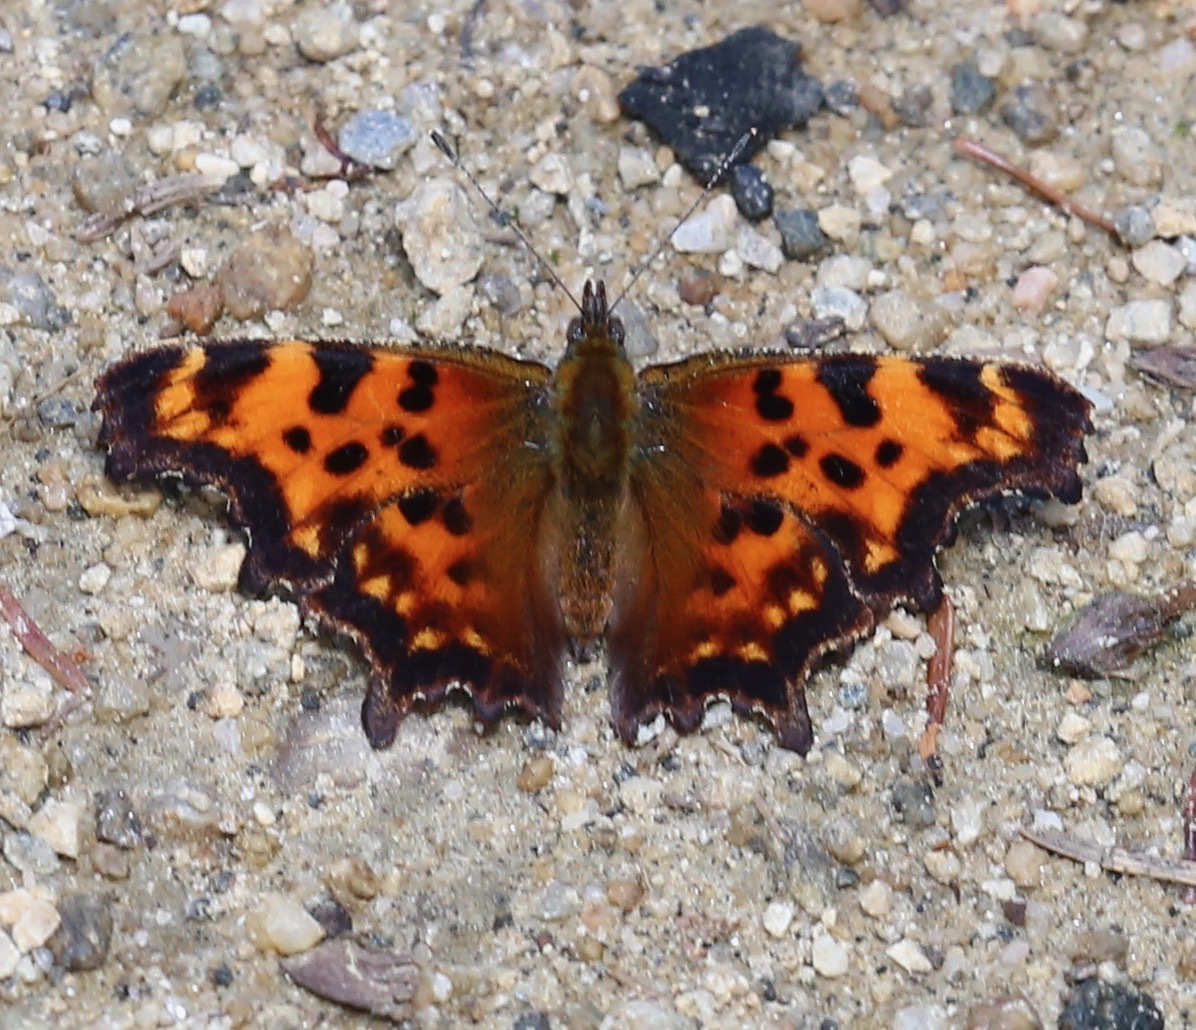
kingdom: Animalia
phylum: Arthropoda
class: Insecta
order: Lepidoptera
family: Nymphalidae
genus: Polygonia
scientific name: Polygonia faunus
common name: Green comma
